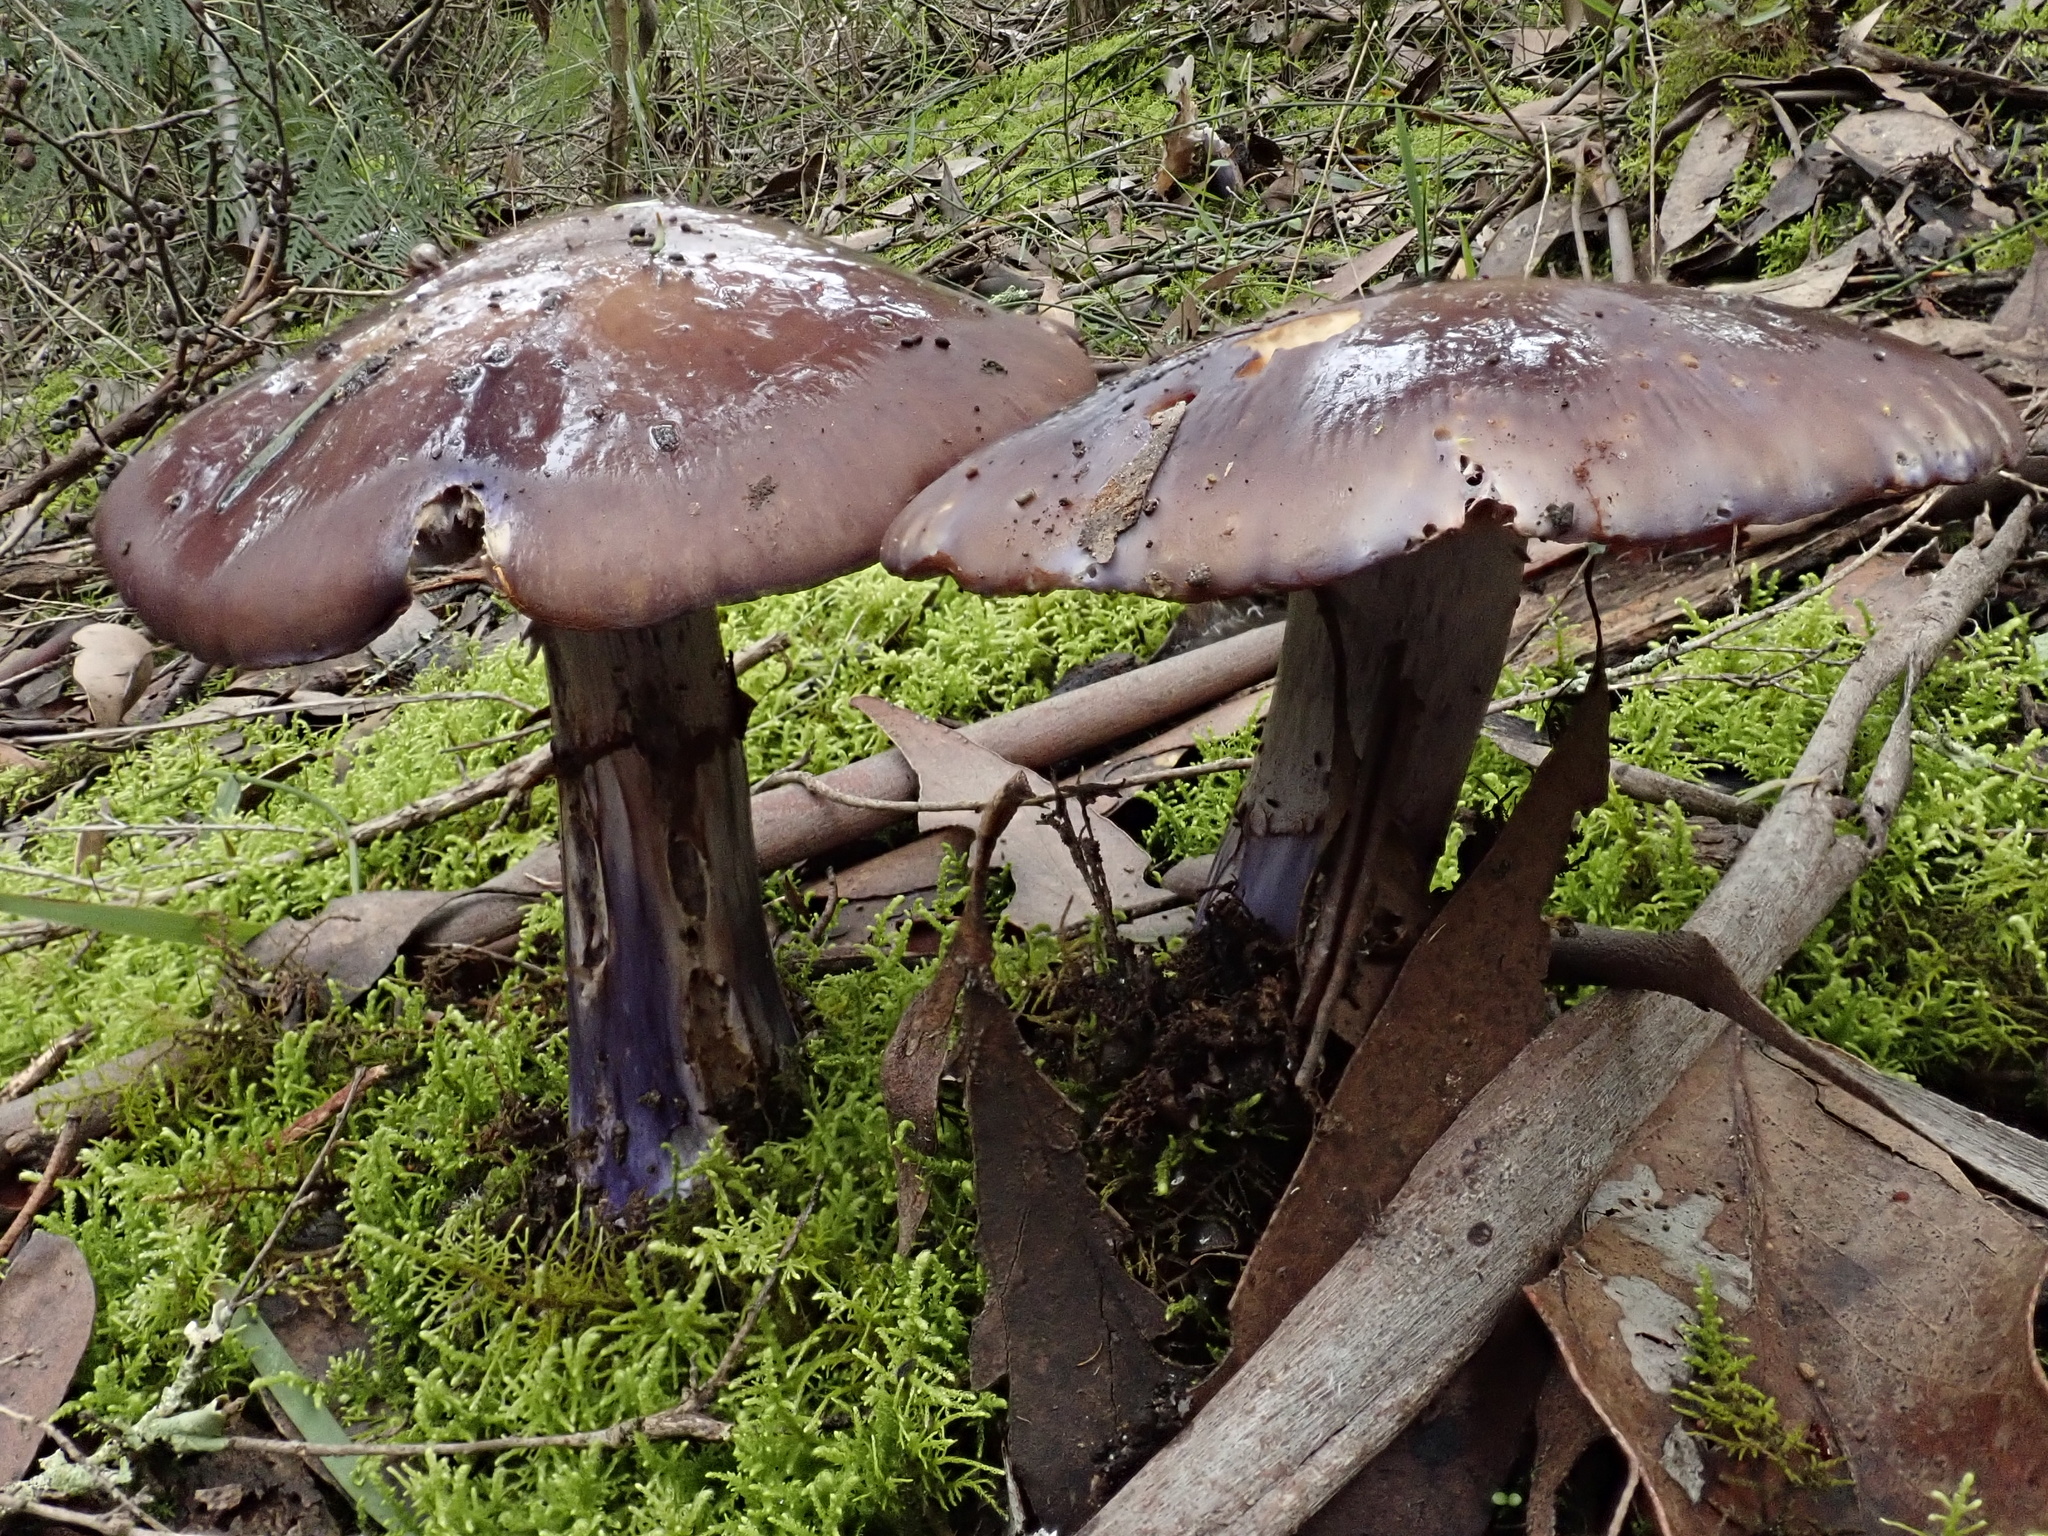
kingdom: Fungi
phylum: Basidiomycota
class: Agaricomycetes
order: Agaricales
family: Cortinariaceae
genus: Cortinarius
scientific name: Cortinarius archeri
